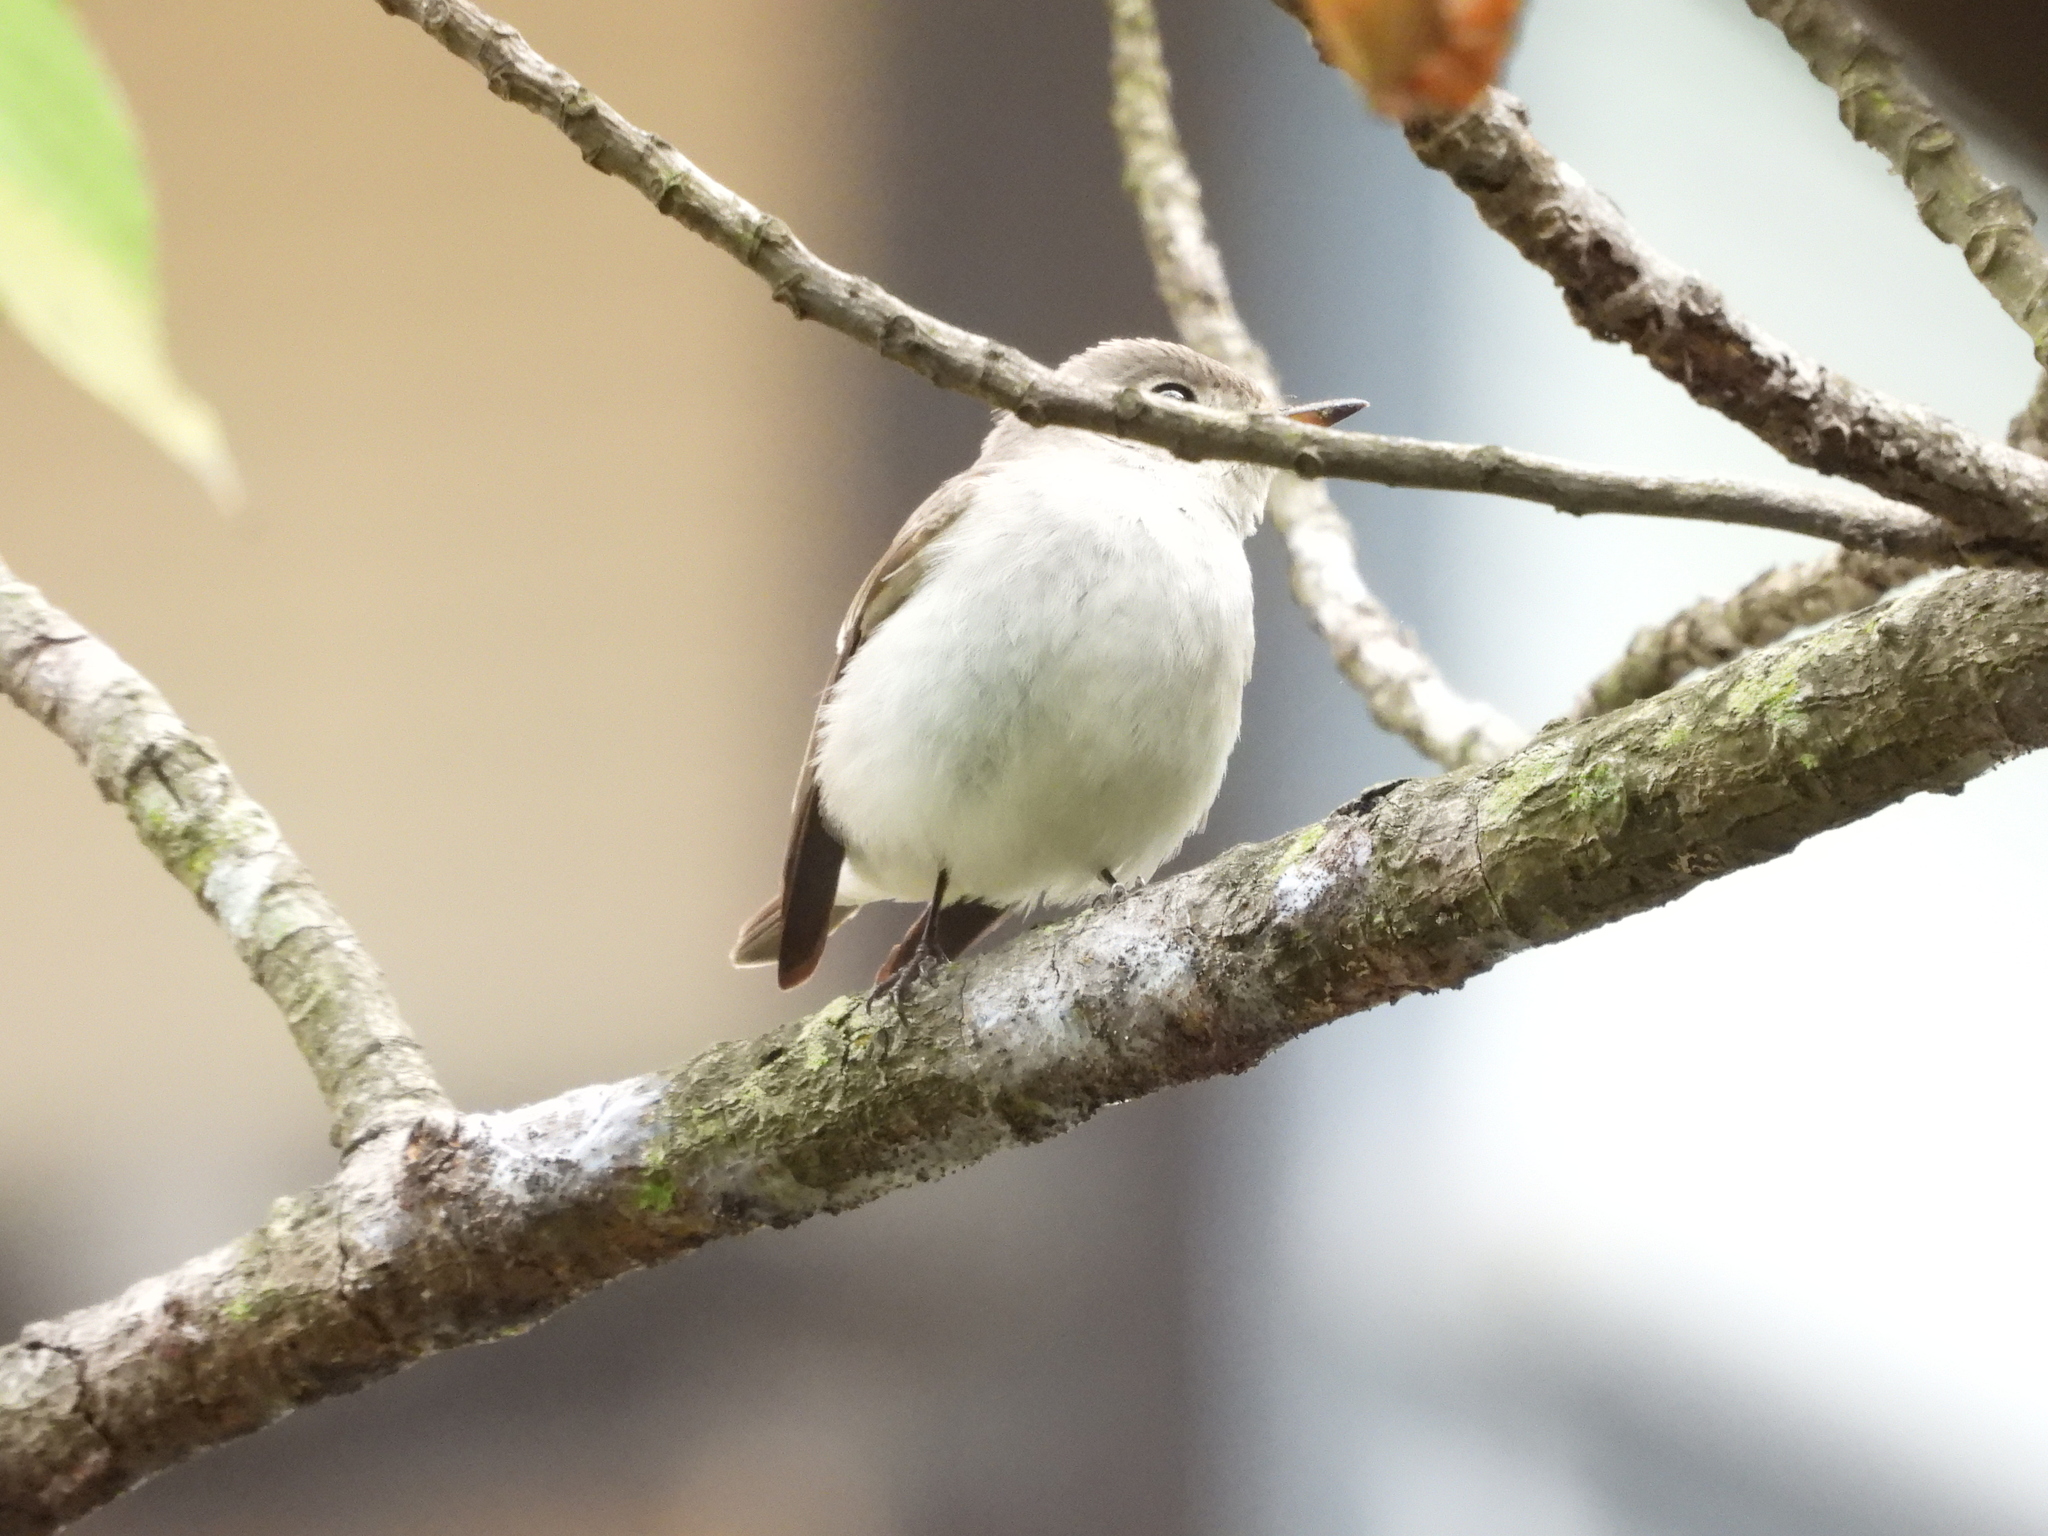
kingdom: Animalia
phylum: Chordata
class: Aves
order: Passeriformes
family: Muscicapidae
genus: Muscicapa
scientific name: Muscicapa latirostris
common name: Asian brown flycatcher
